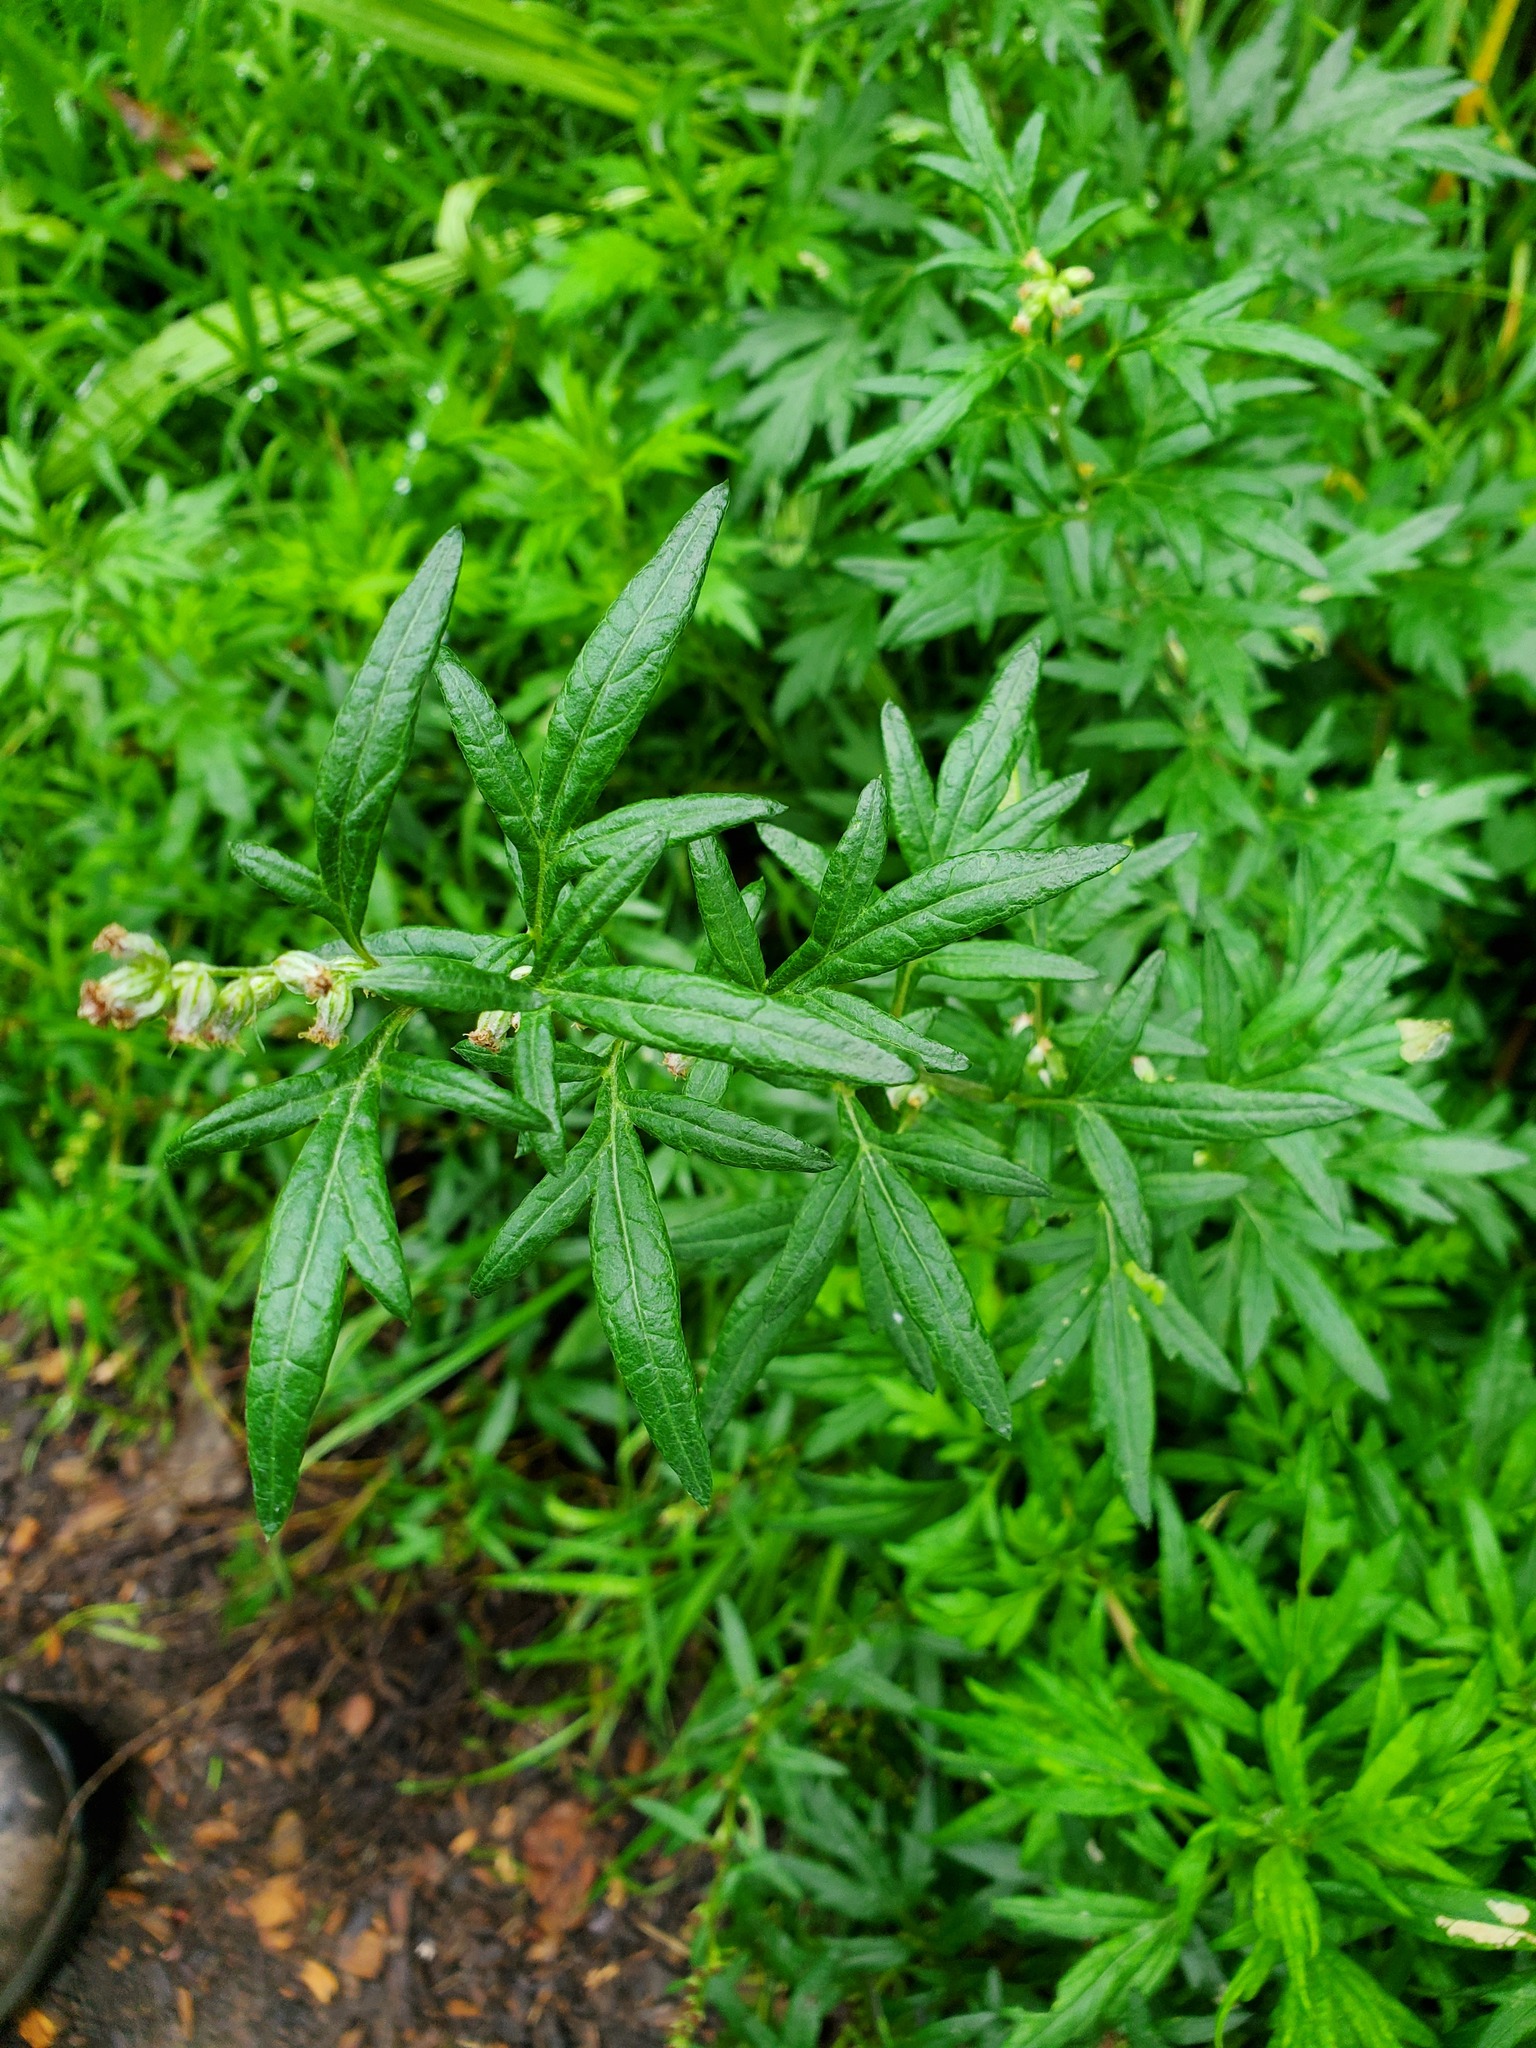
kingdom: Plantae
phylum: Tracheophyta
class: Magnoliopsida
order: Asterales
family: Asteraceae
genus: Artemisia
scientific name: Artemisia vulgaris
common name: Mugwort
